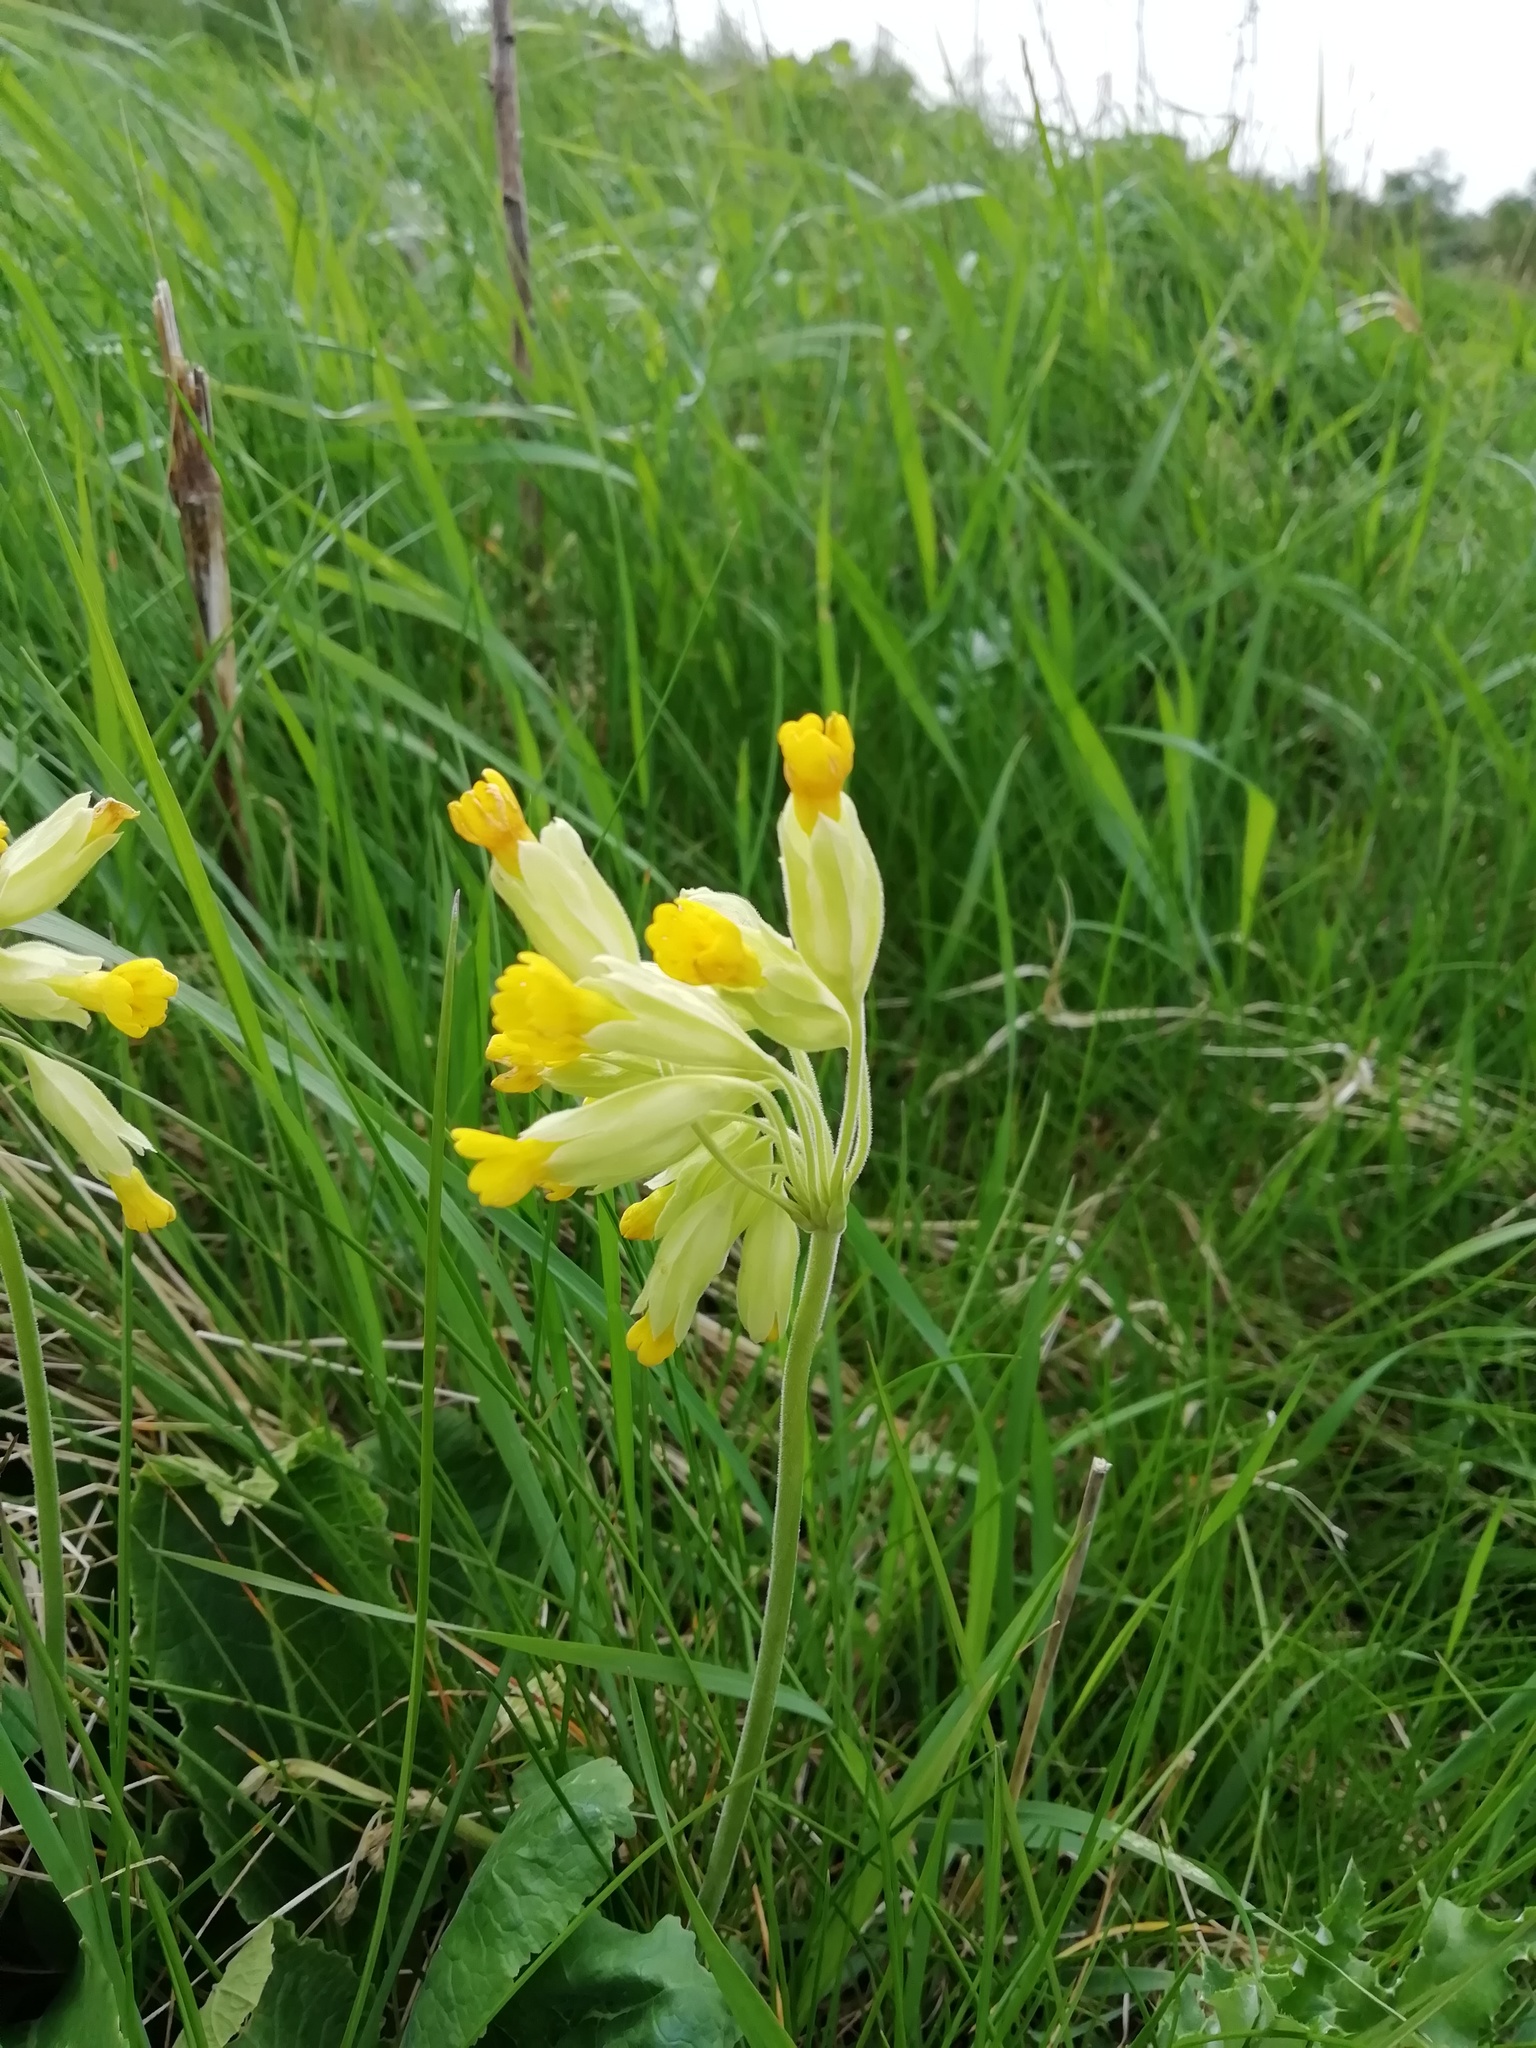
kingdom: Plantae
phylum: Tracheophyta
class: Magnoliopsida
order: Ericales
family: Primulaceae
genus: Primula
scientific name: Primula veris
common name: Cowslip
